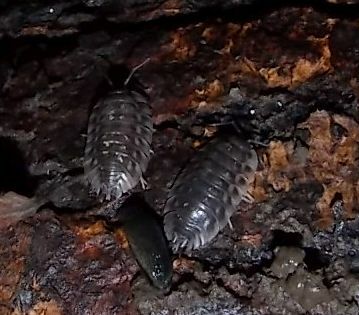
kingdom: Animalia
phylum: Arthropoda
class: Malacostraca
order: Isopoda
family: Oniscidae
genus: Oniscus
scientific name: Oniscus asellus
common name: Common shiny woodlouse
